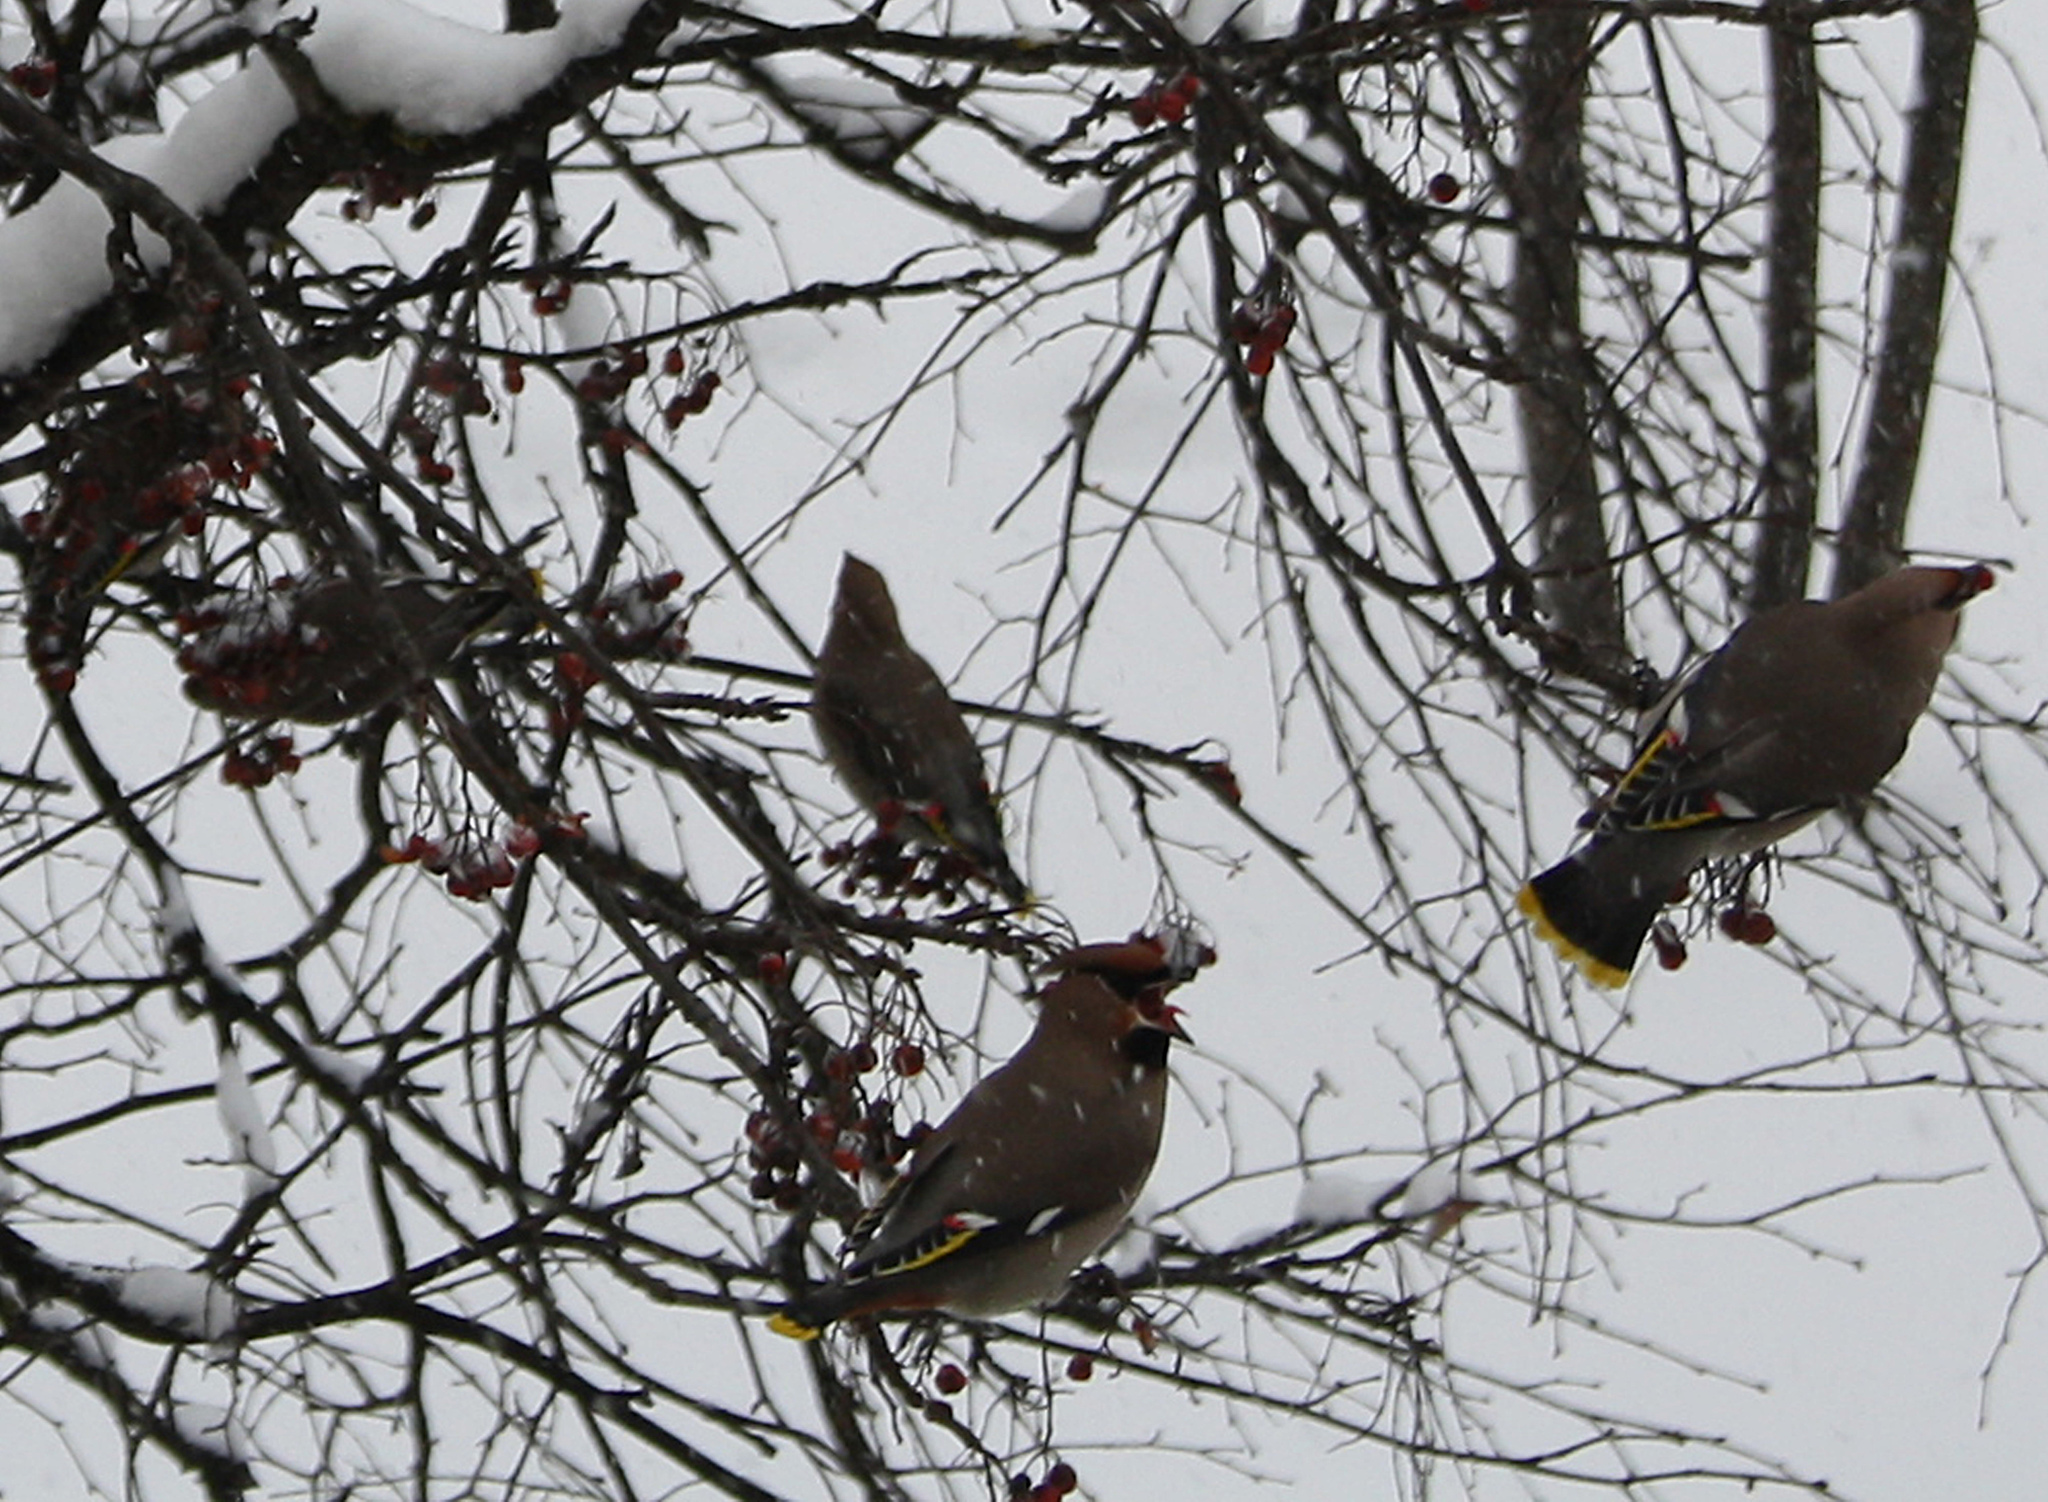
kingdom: Animalia
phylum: Chordata
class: Aves
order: Passeriformes
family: Bombycillidae
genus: Bombycilla
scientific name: Bombycilla garrulus
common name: Bohemian waxwing
